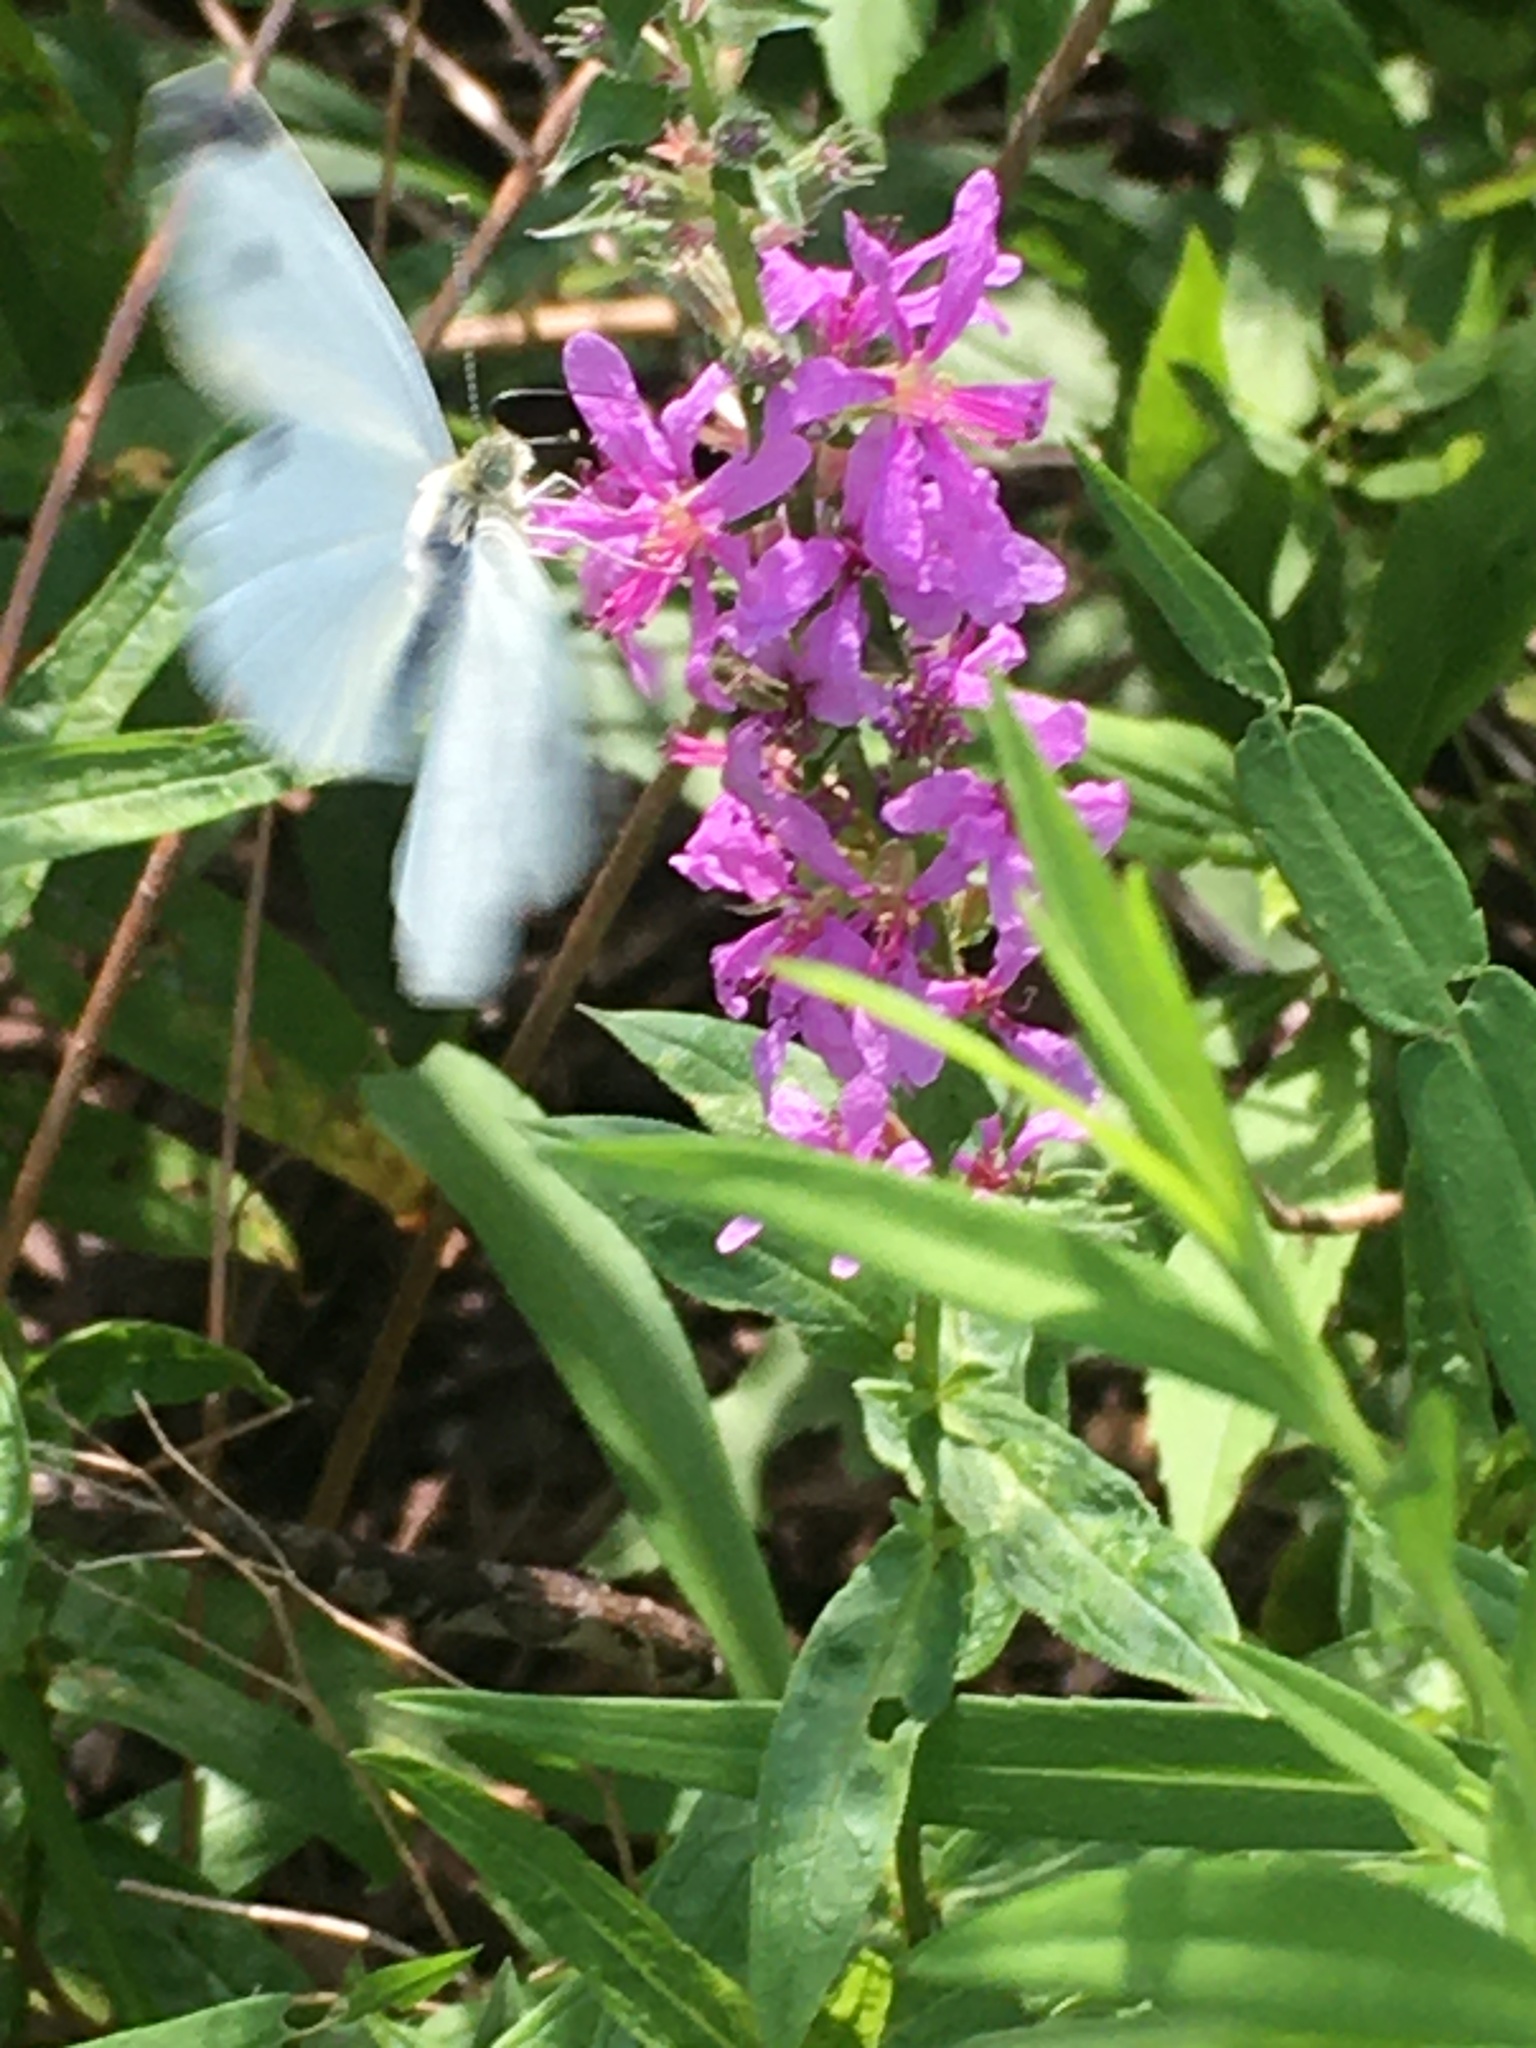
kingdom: Animalia
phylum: Arthropoda
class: Insecta
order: Lepidoptera
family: Pieridae
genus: Pieris
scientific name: Pieris rapae
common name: Small white
